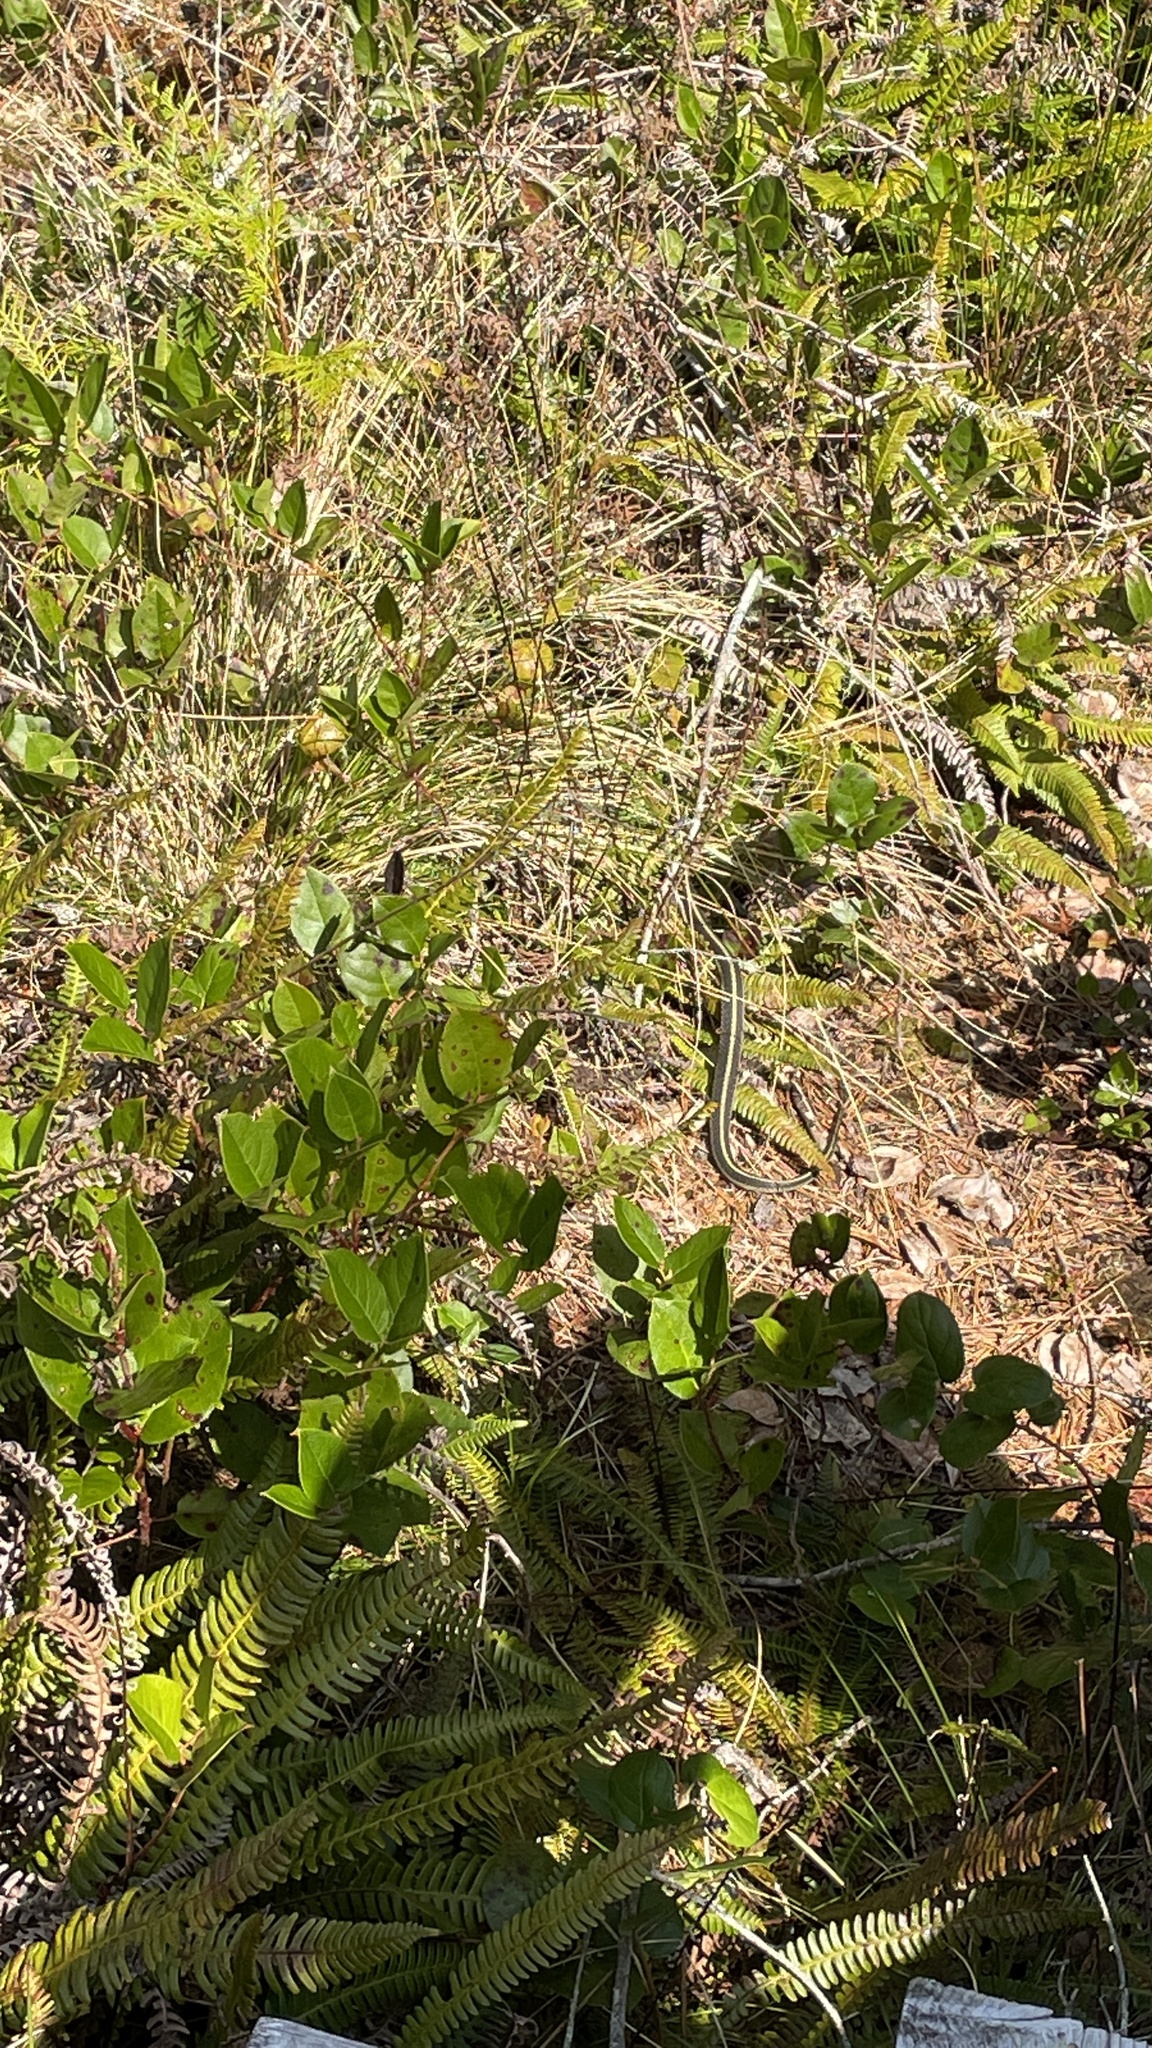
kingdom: Animalia
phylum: Chordata
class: Squamata
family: Colubridae
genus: Thamnophis
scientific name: Thamnophis
